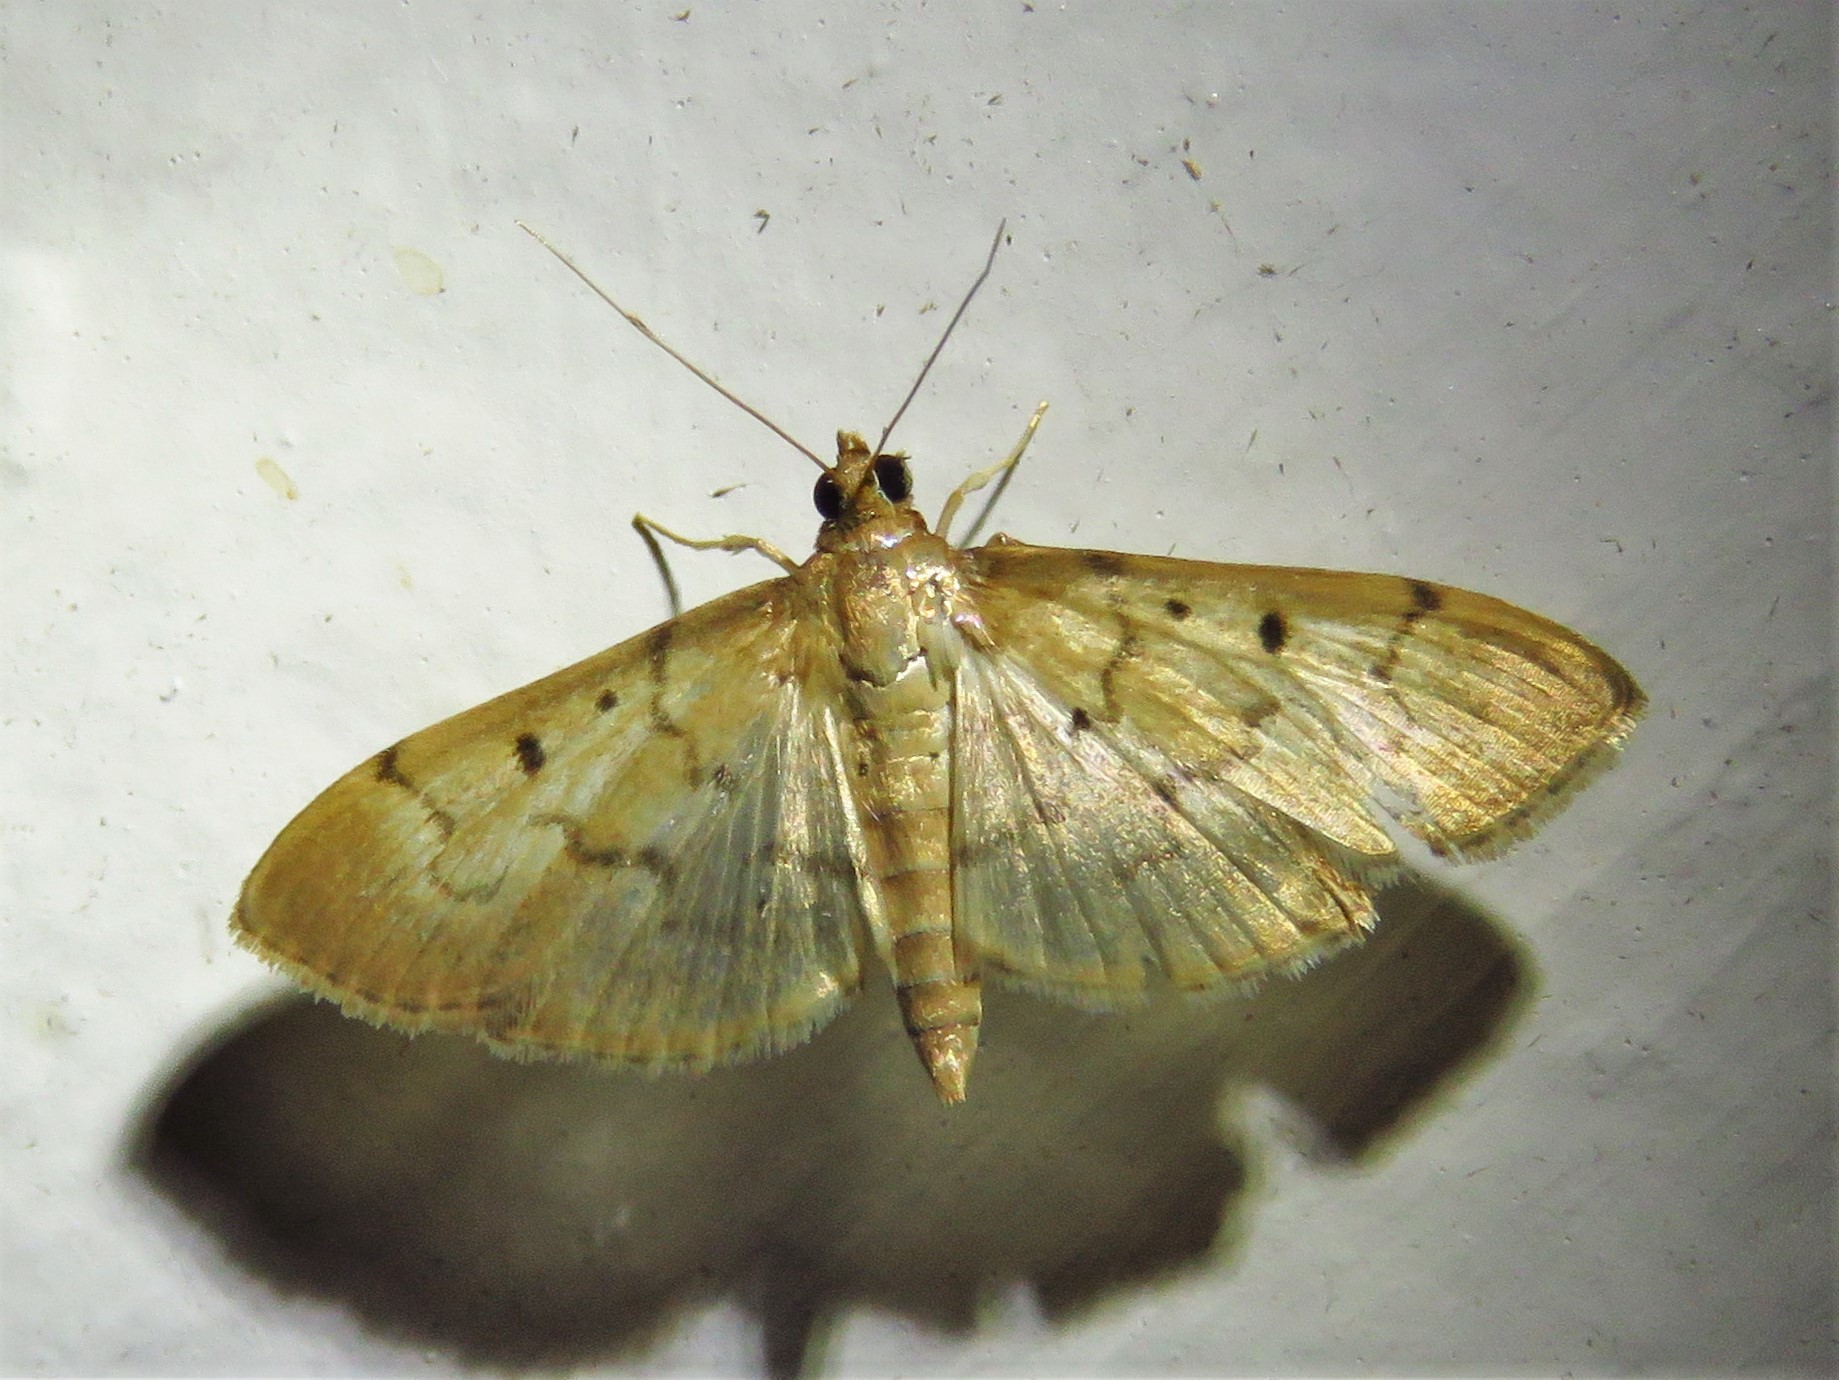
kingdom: Animalia
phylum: Arthropoda
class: Insecta
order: Lepidoptera
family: Crambidae
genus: Herpetogramma
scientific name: Herpetogramma bipunctalis
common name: Southern beet webworm
